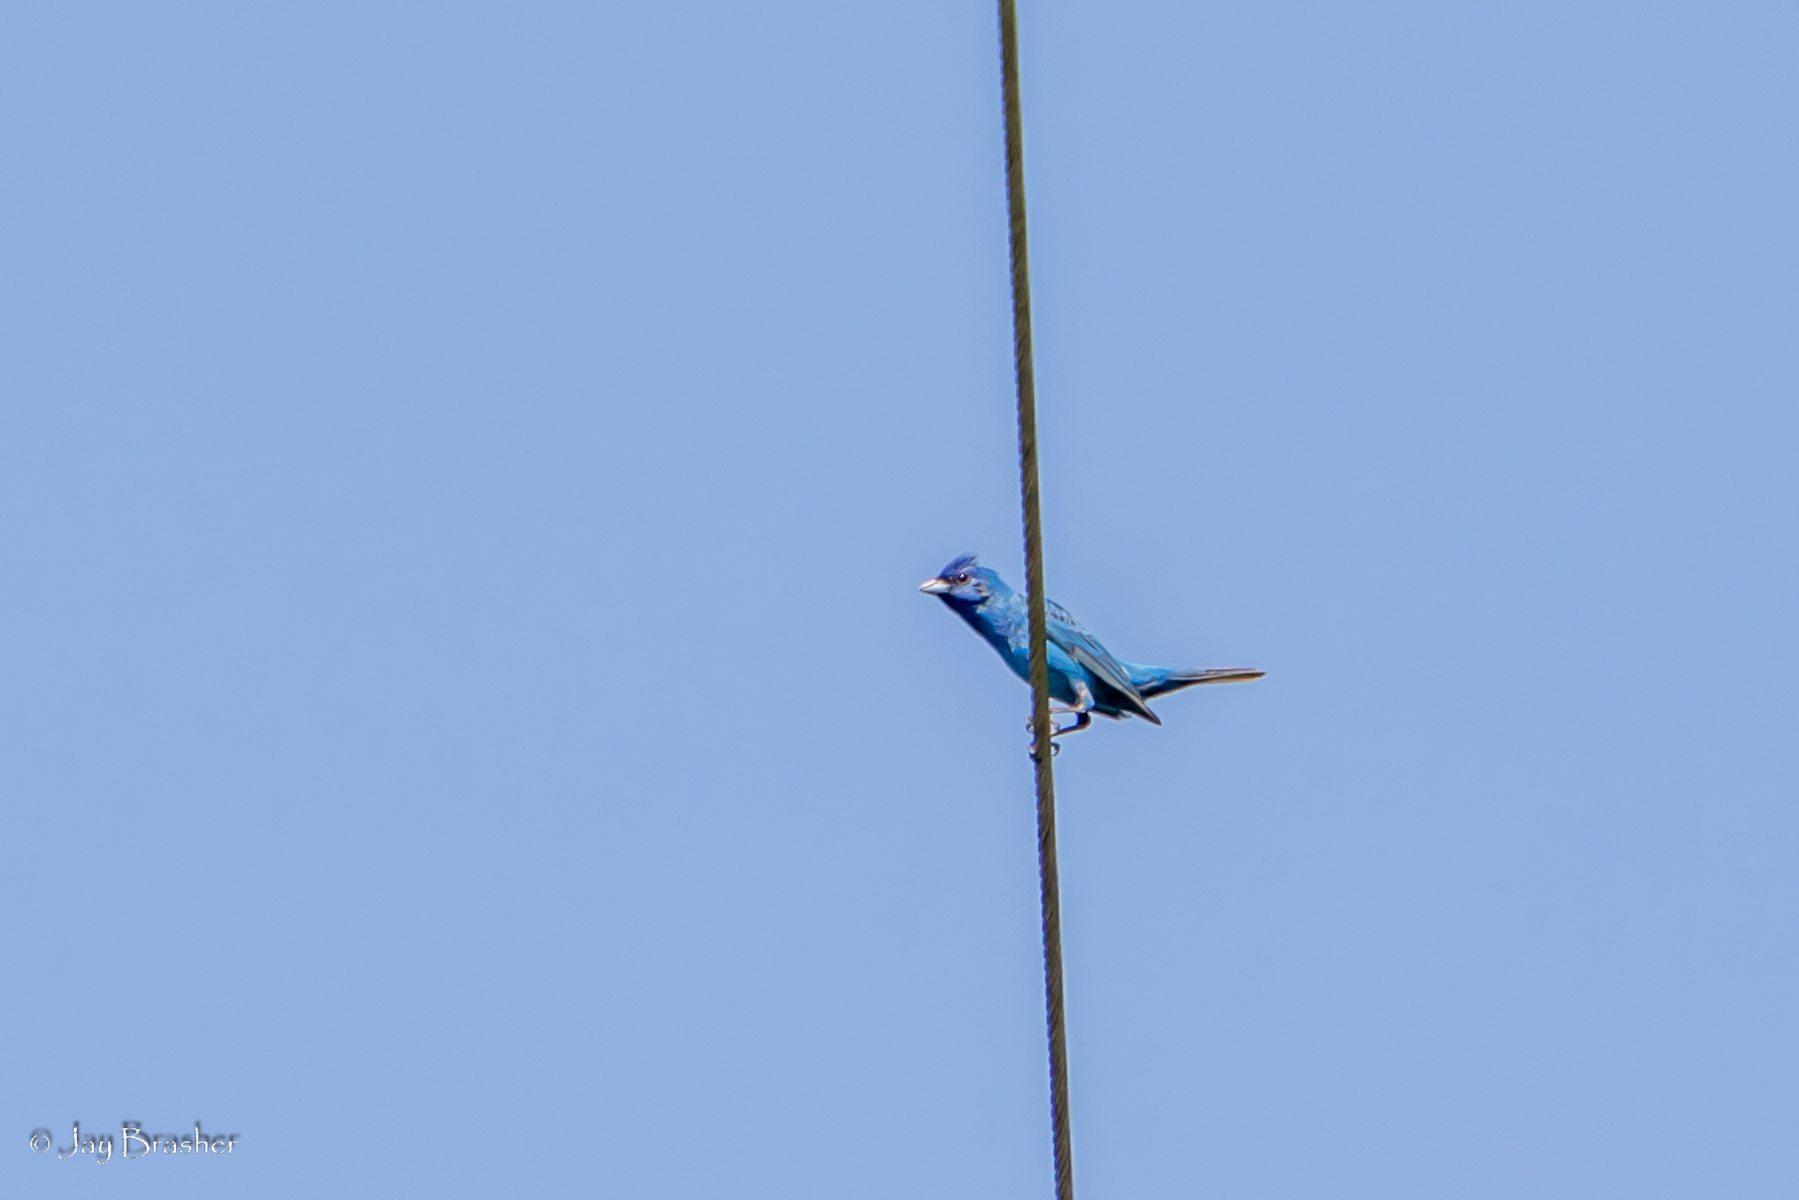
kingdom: Animalia
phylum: Chordata
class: Aves
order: Passeriformes
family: Cardinalidae
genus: Passerina
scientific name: Passerina cyanea
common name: Indigo bunting
